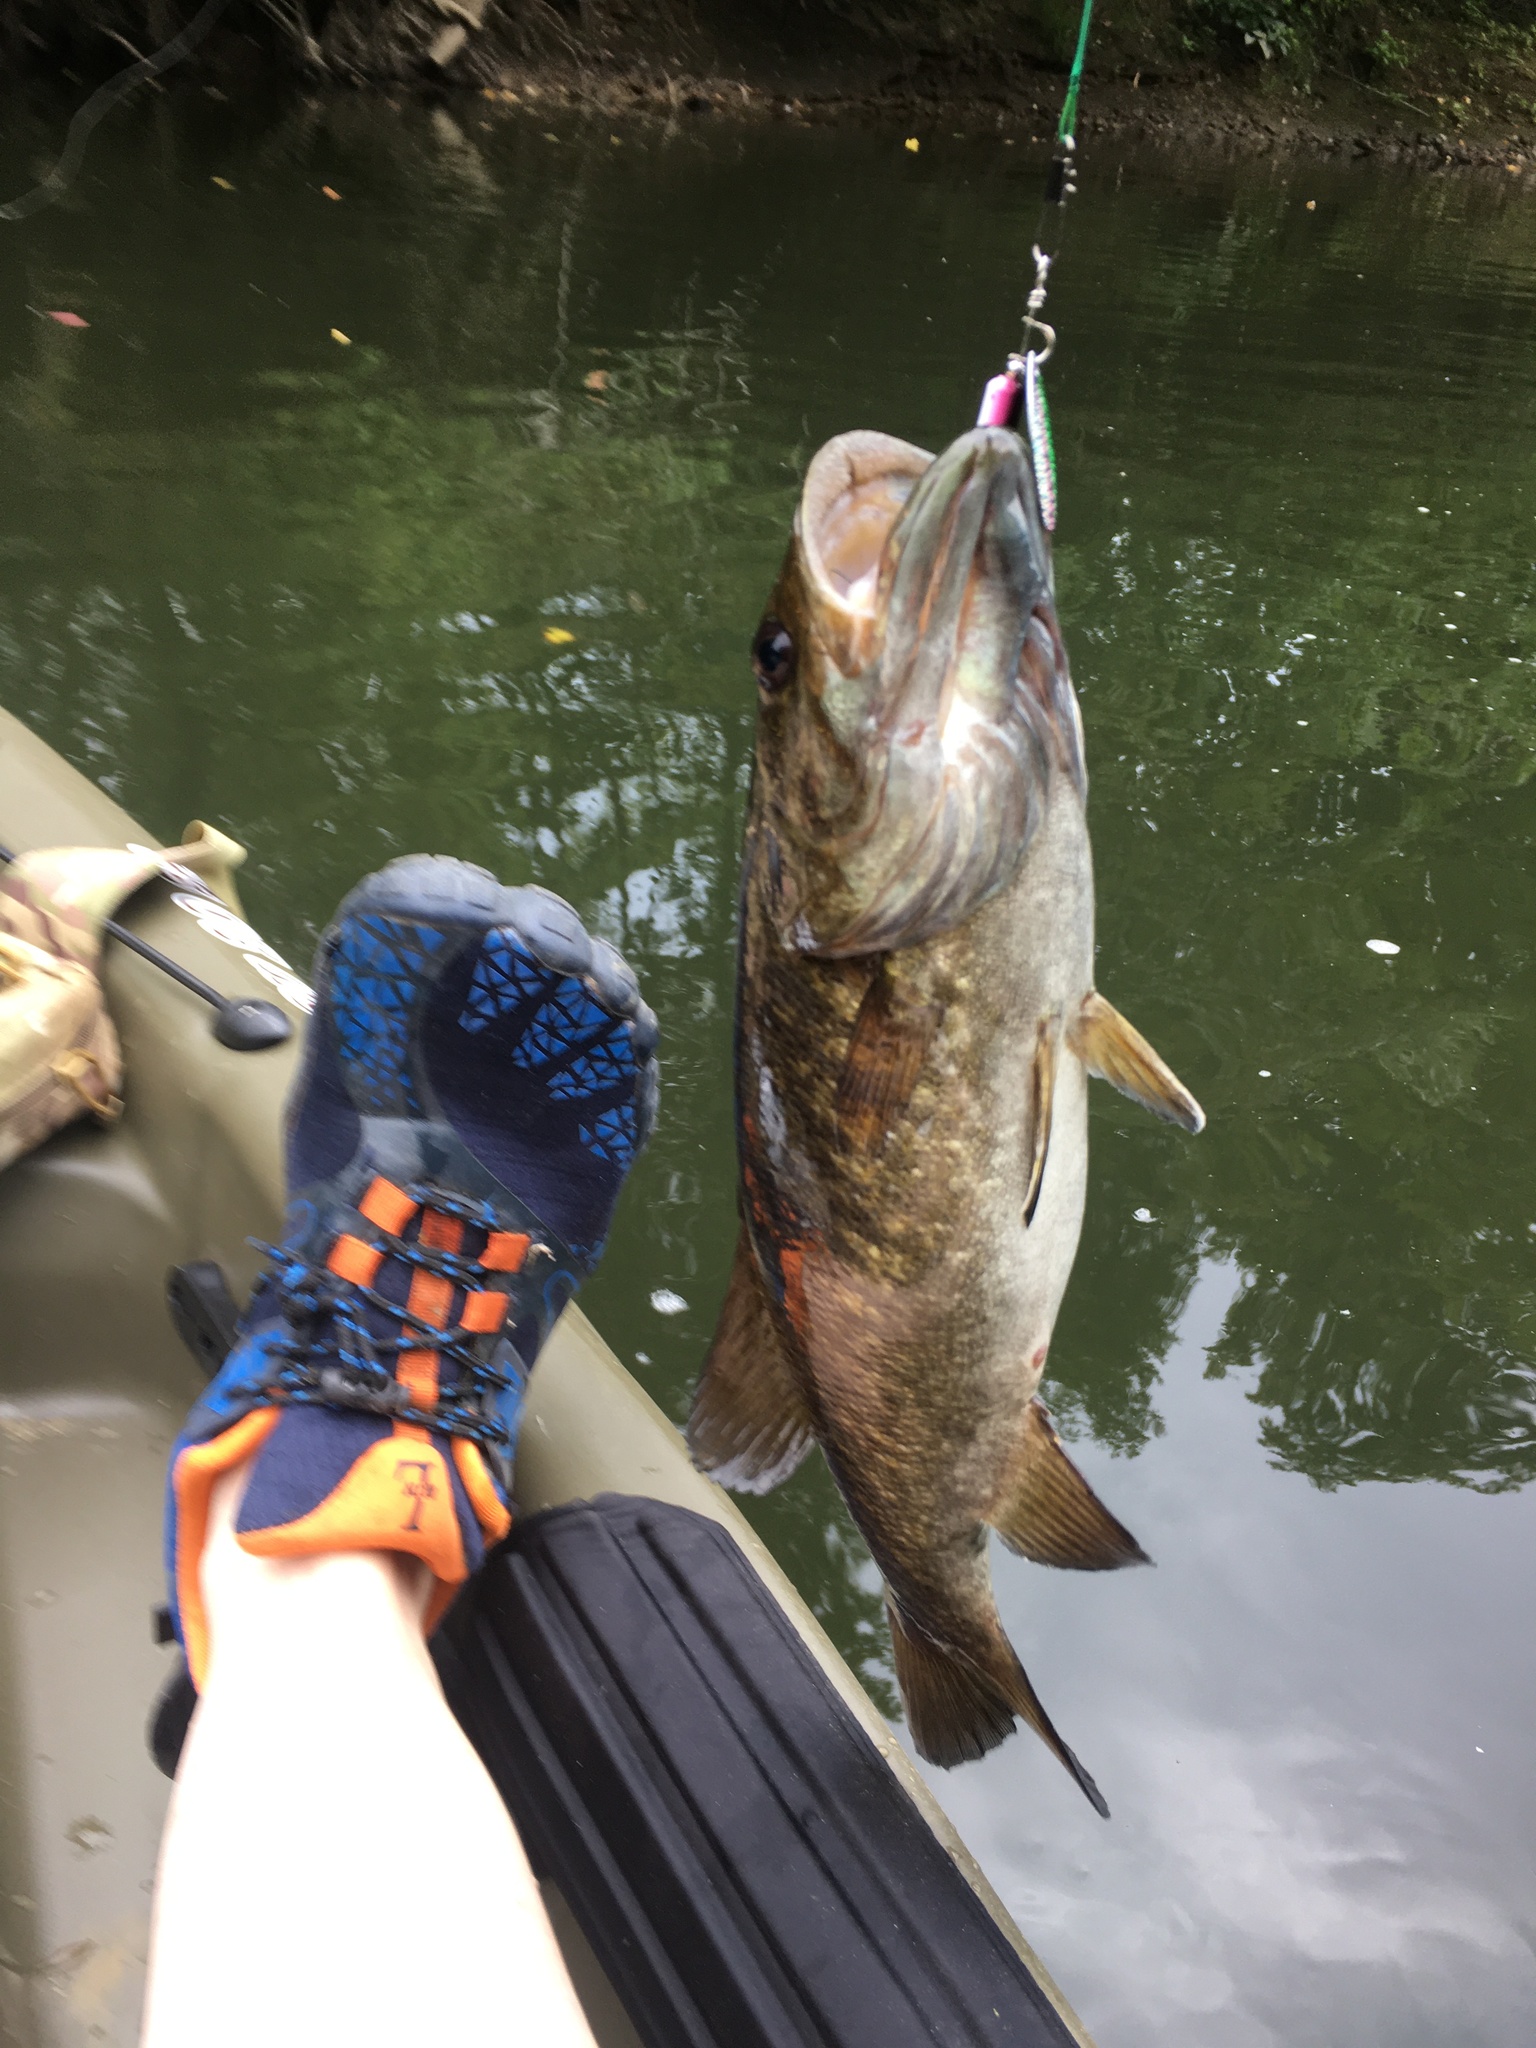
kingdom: Animalia
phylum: Chordata
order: Perciformes
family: Centrarchidae
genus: Micropterus
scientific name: Micropterus dolomieu
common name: Smallmouth bass
